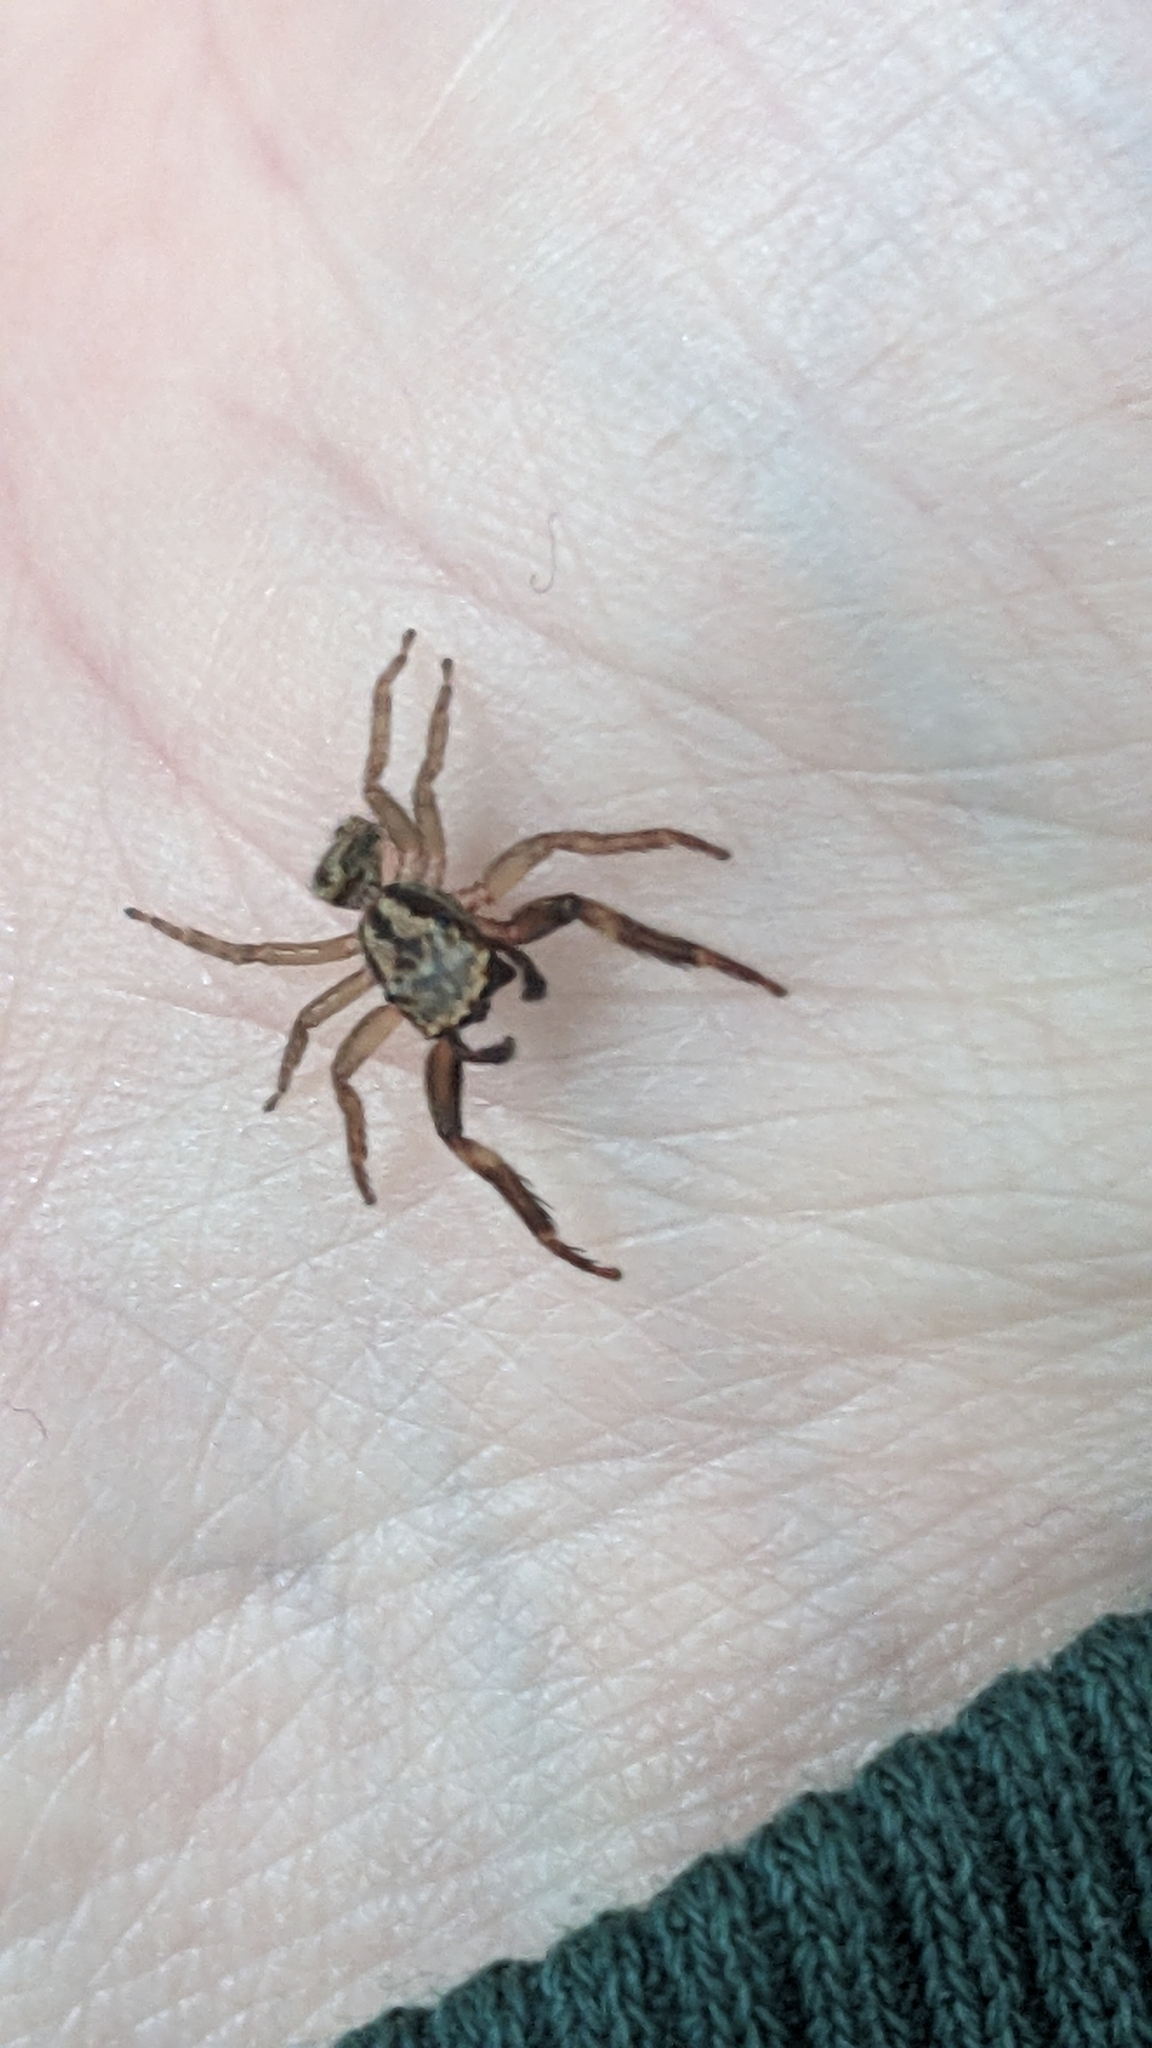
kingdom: Animalia
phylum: Arthropoda
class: Arachnida
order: Araneae
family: Salticidae
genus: Trite
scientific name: Trite auricoma
